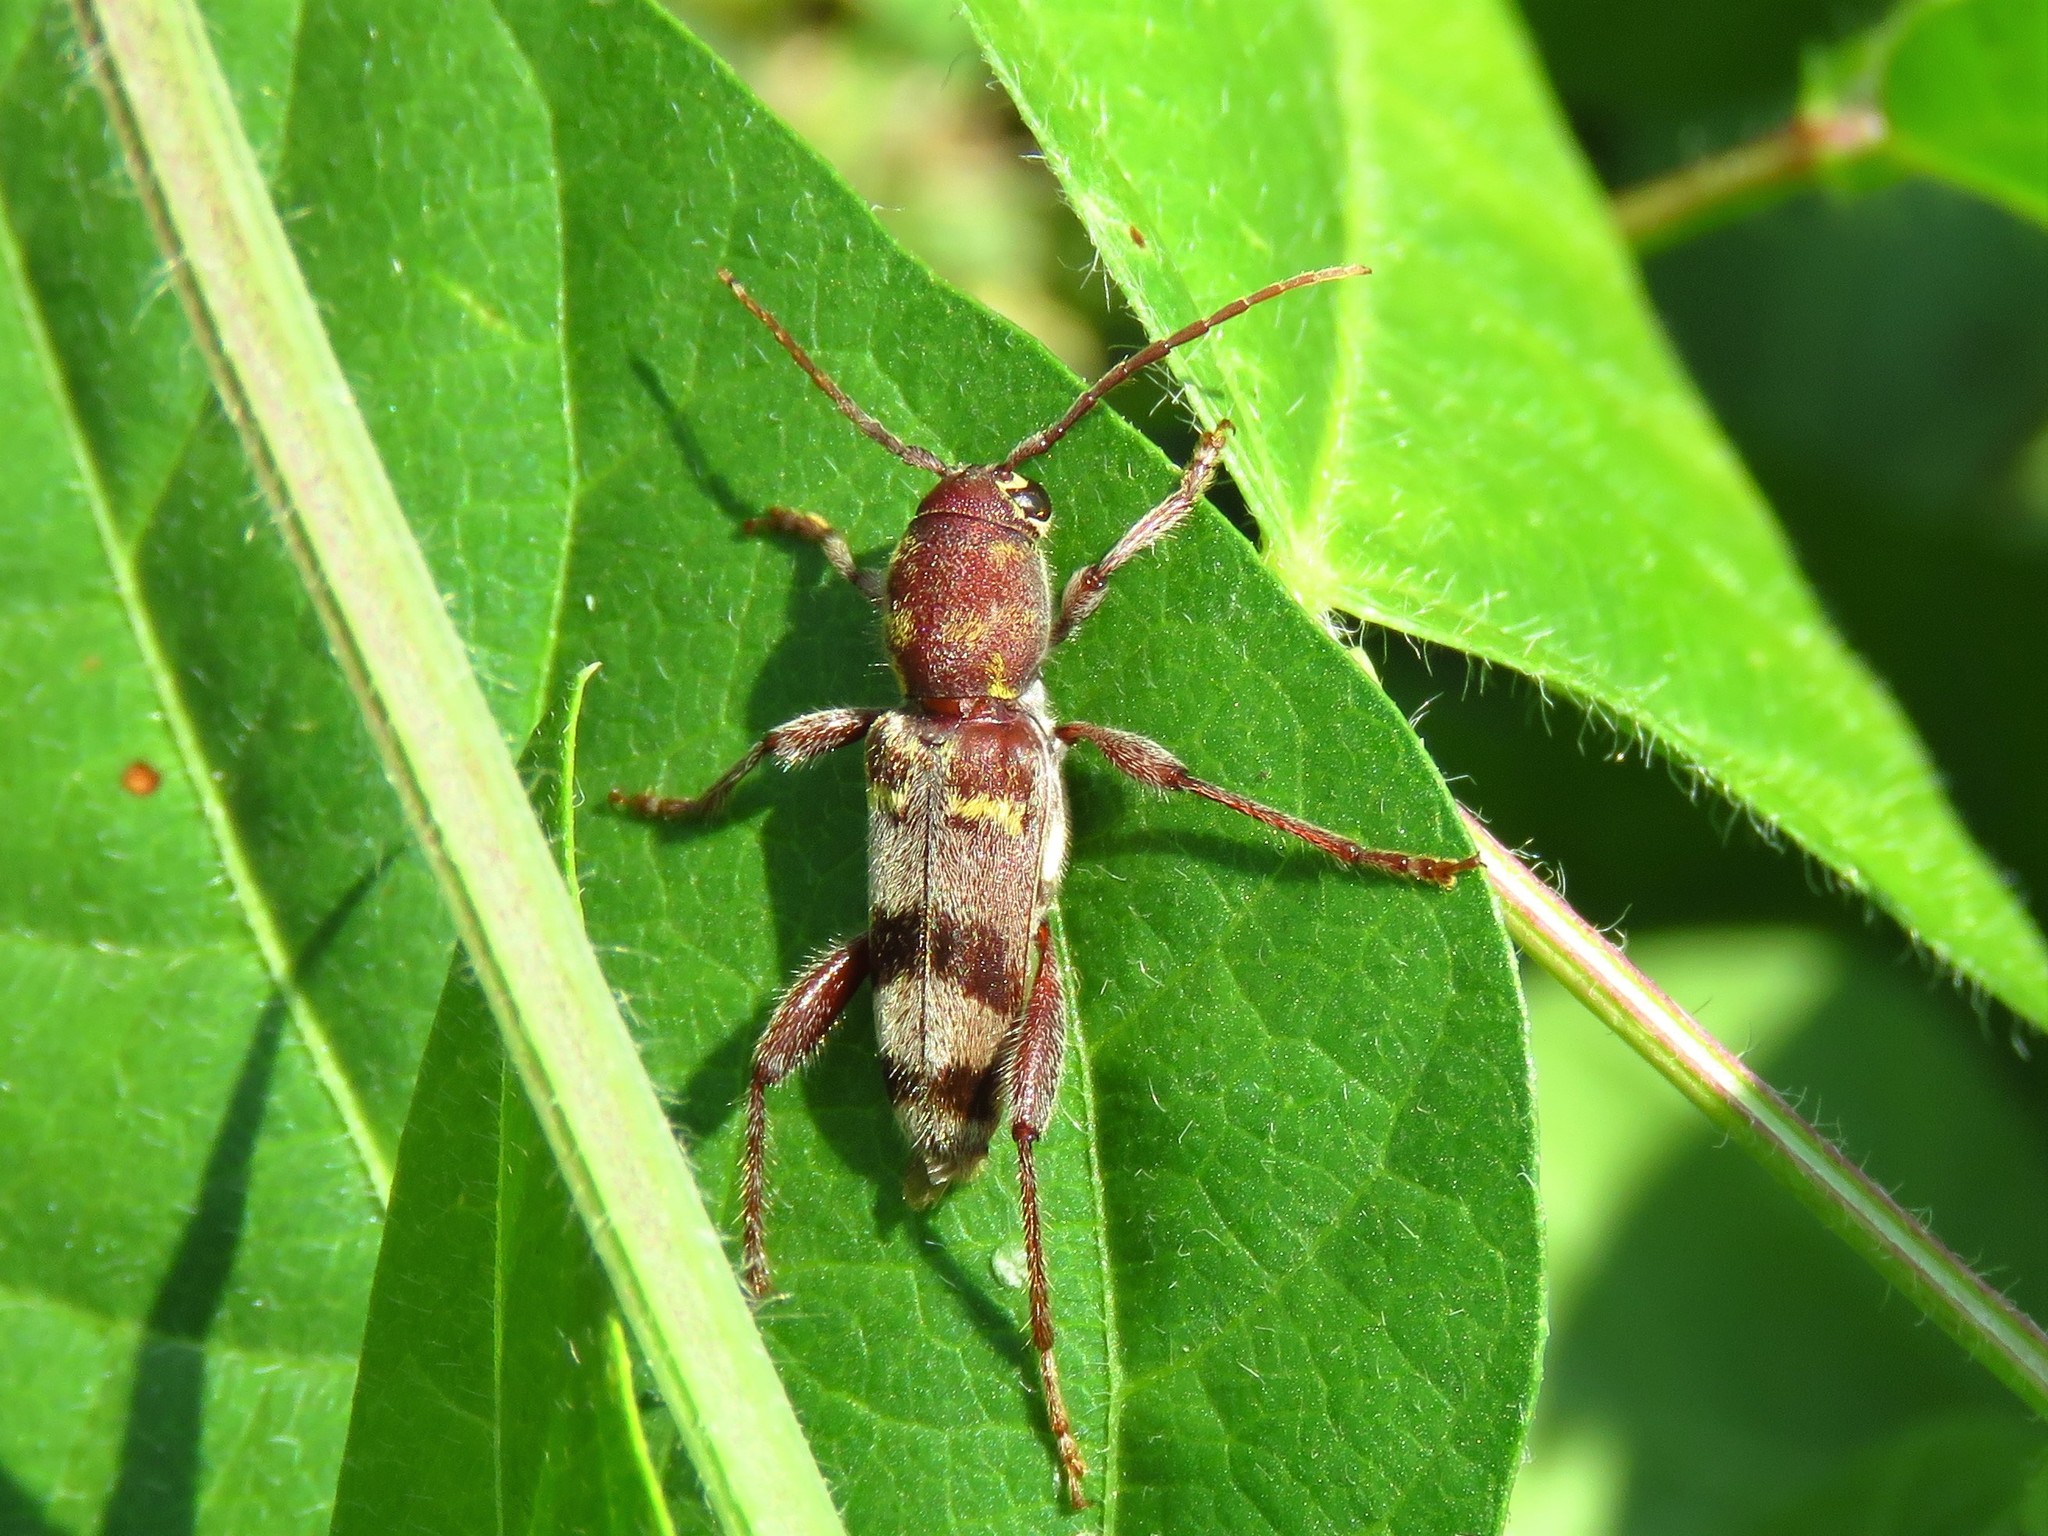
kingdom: Animalia
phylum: Arthropoda
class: Insecta
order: Coleoptera
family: Cerambycidae
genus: Xylotrechus
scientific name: Xylotrechus colonus
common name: Long-horned beetle
